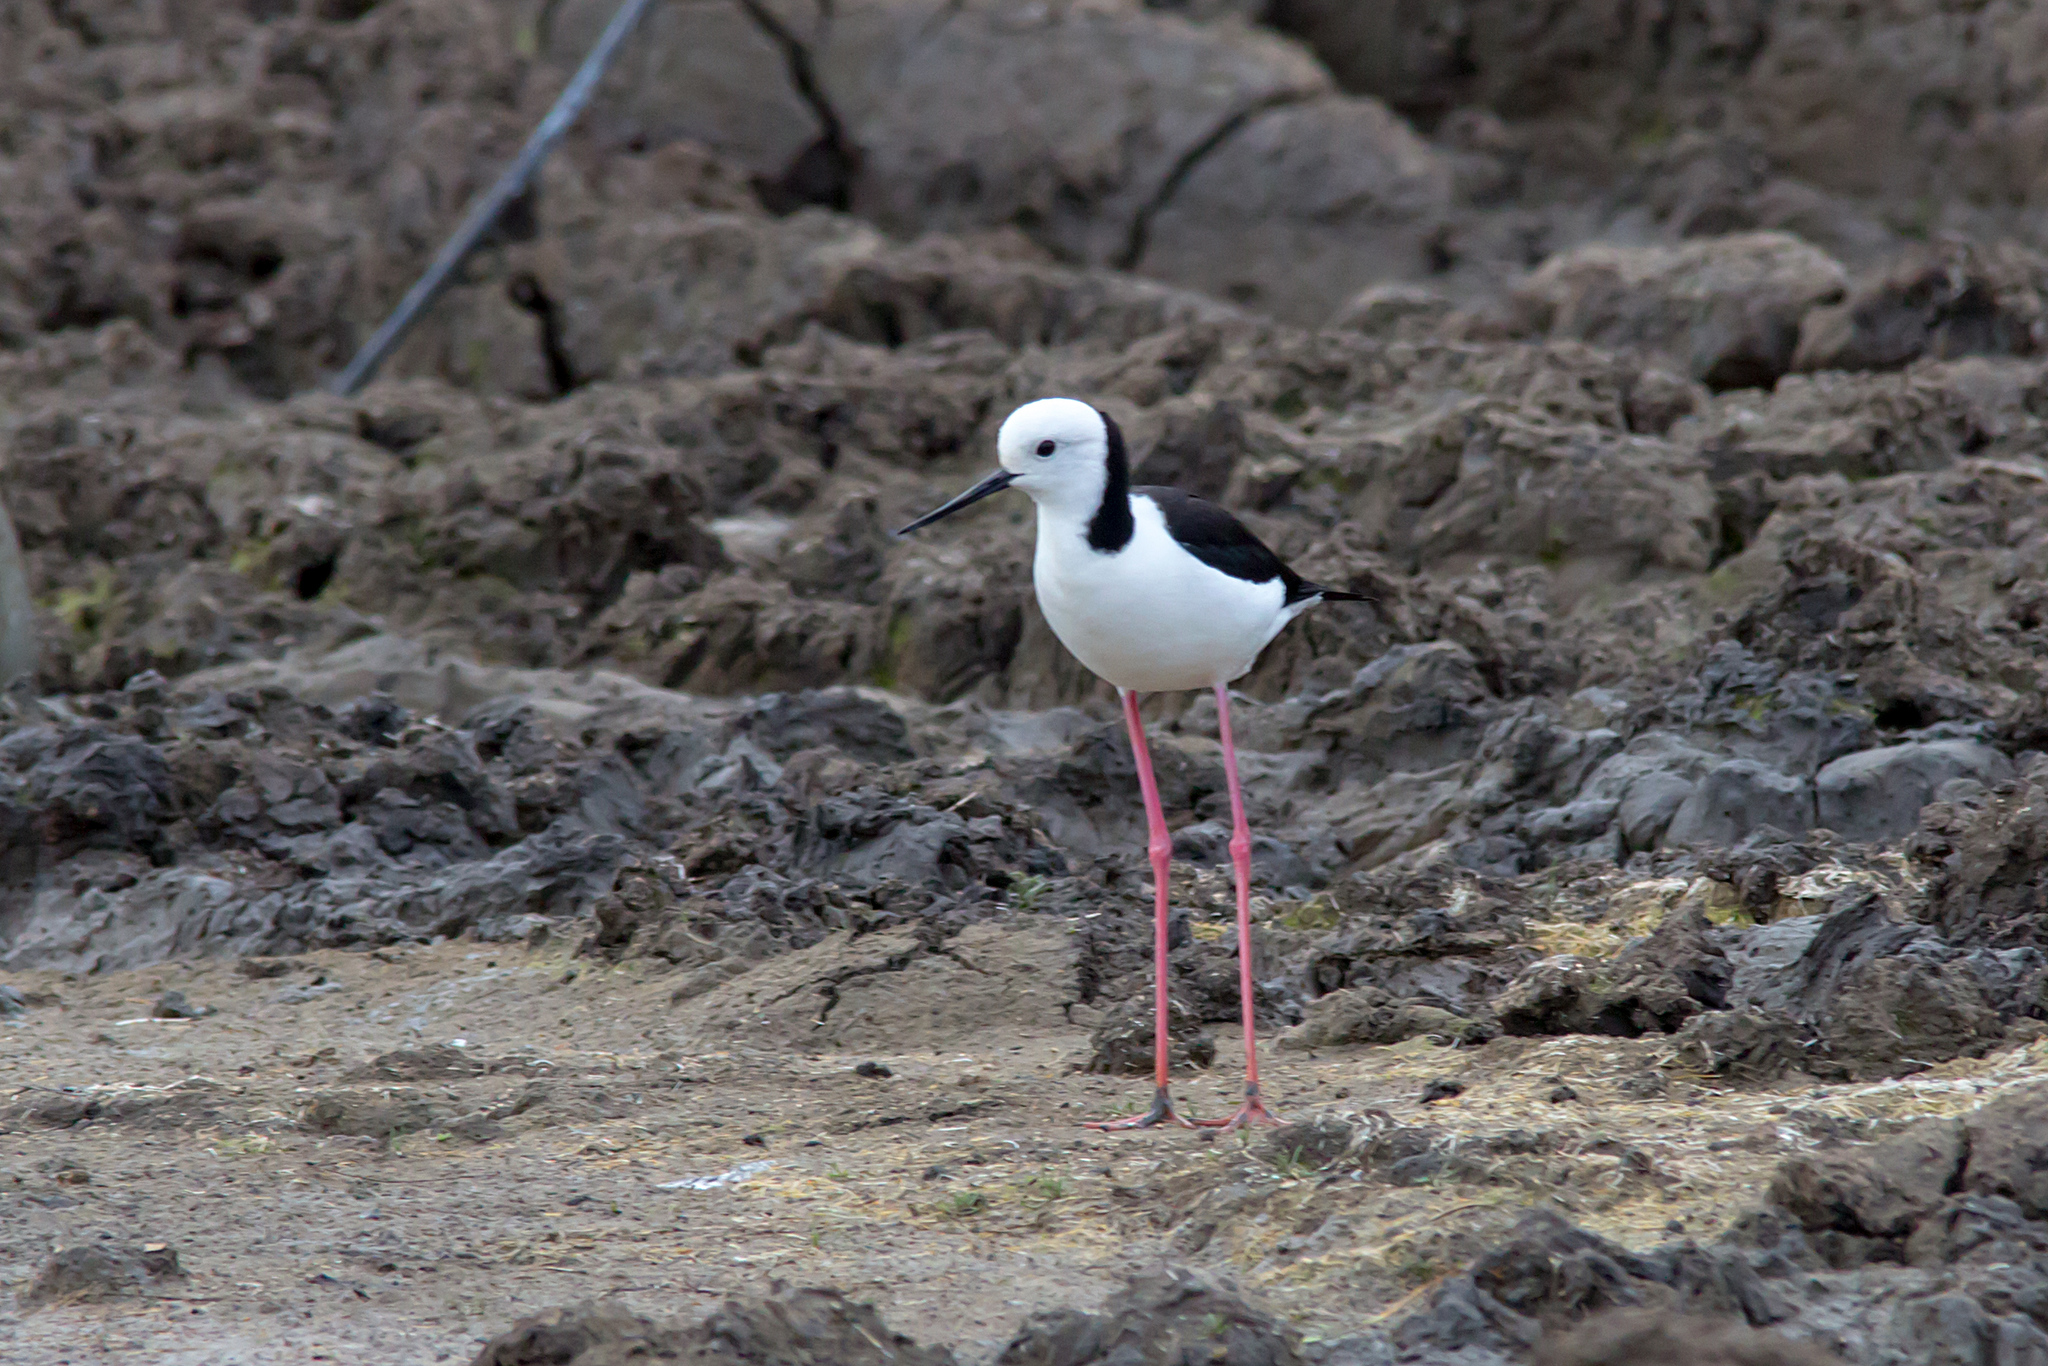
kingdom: Animalia
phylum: Chordata
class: Aves
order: Charadriiformes
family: Recurvirostridae
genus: Himantopus
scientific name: Himantopus leucocephalus
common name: White-headed stilt
